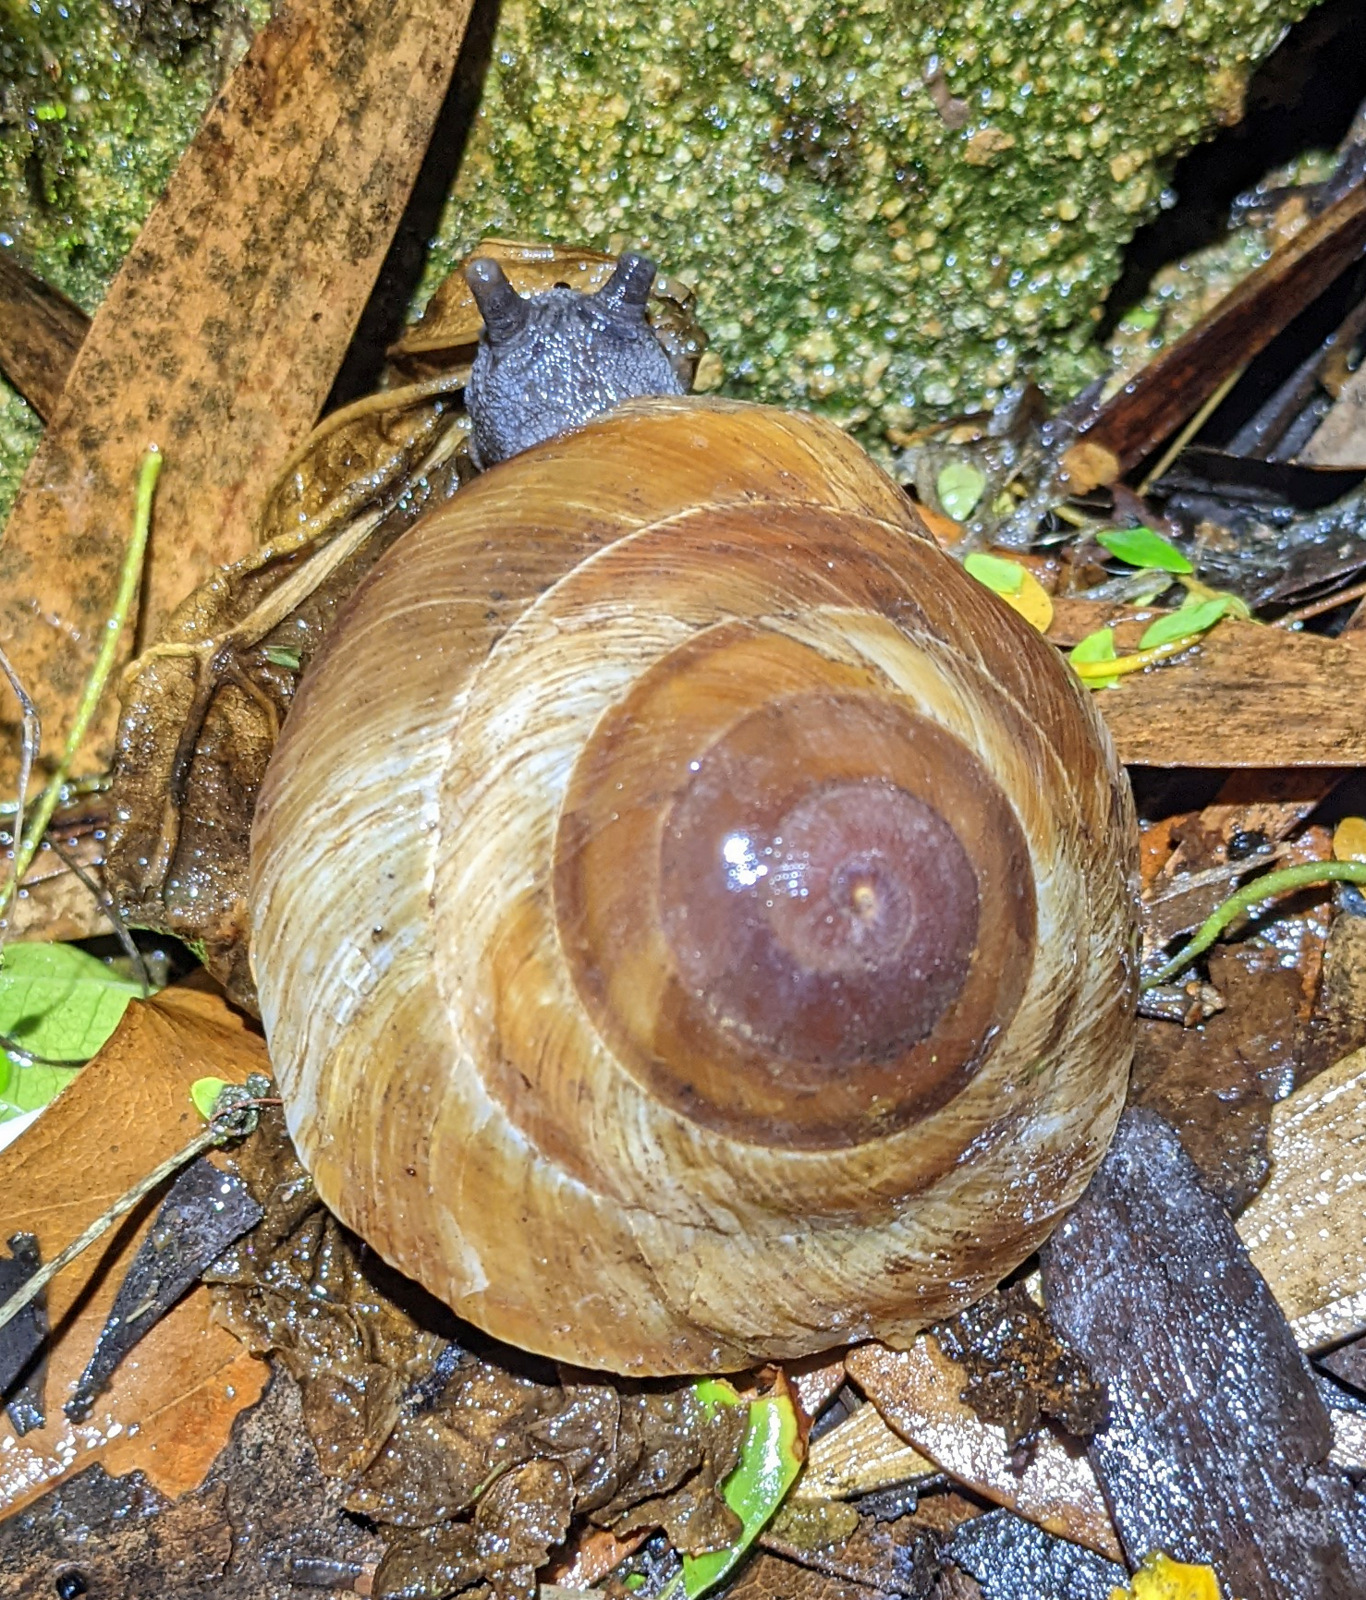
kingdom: Animalia
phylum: Mollusca
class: Gastropoda
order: Stylommatophora
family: Solaropsidae
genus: Caracolus
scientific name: Caracolus carocolla
